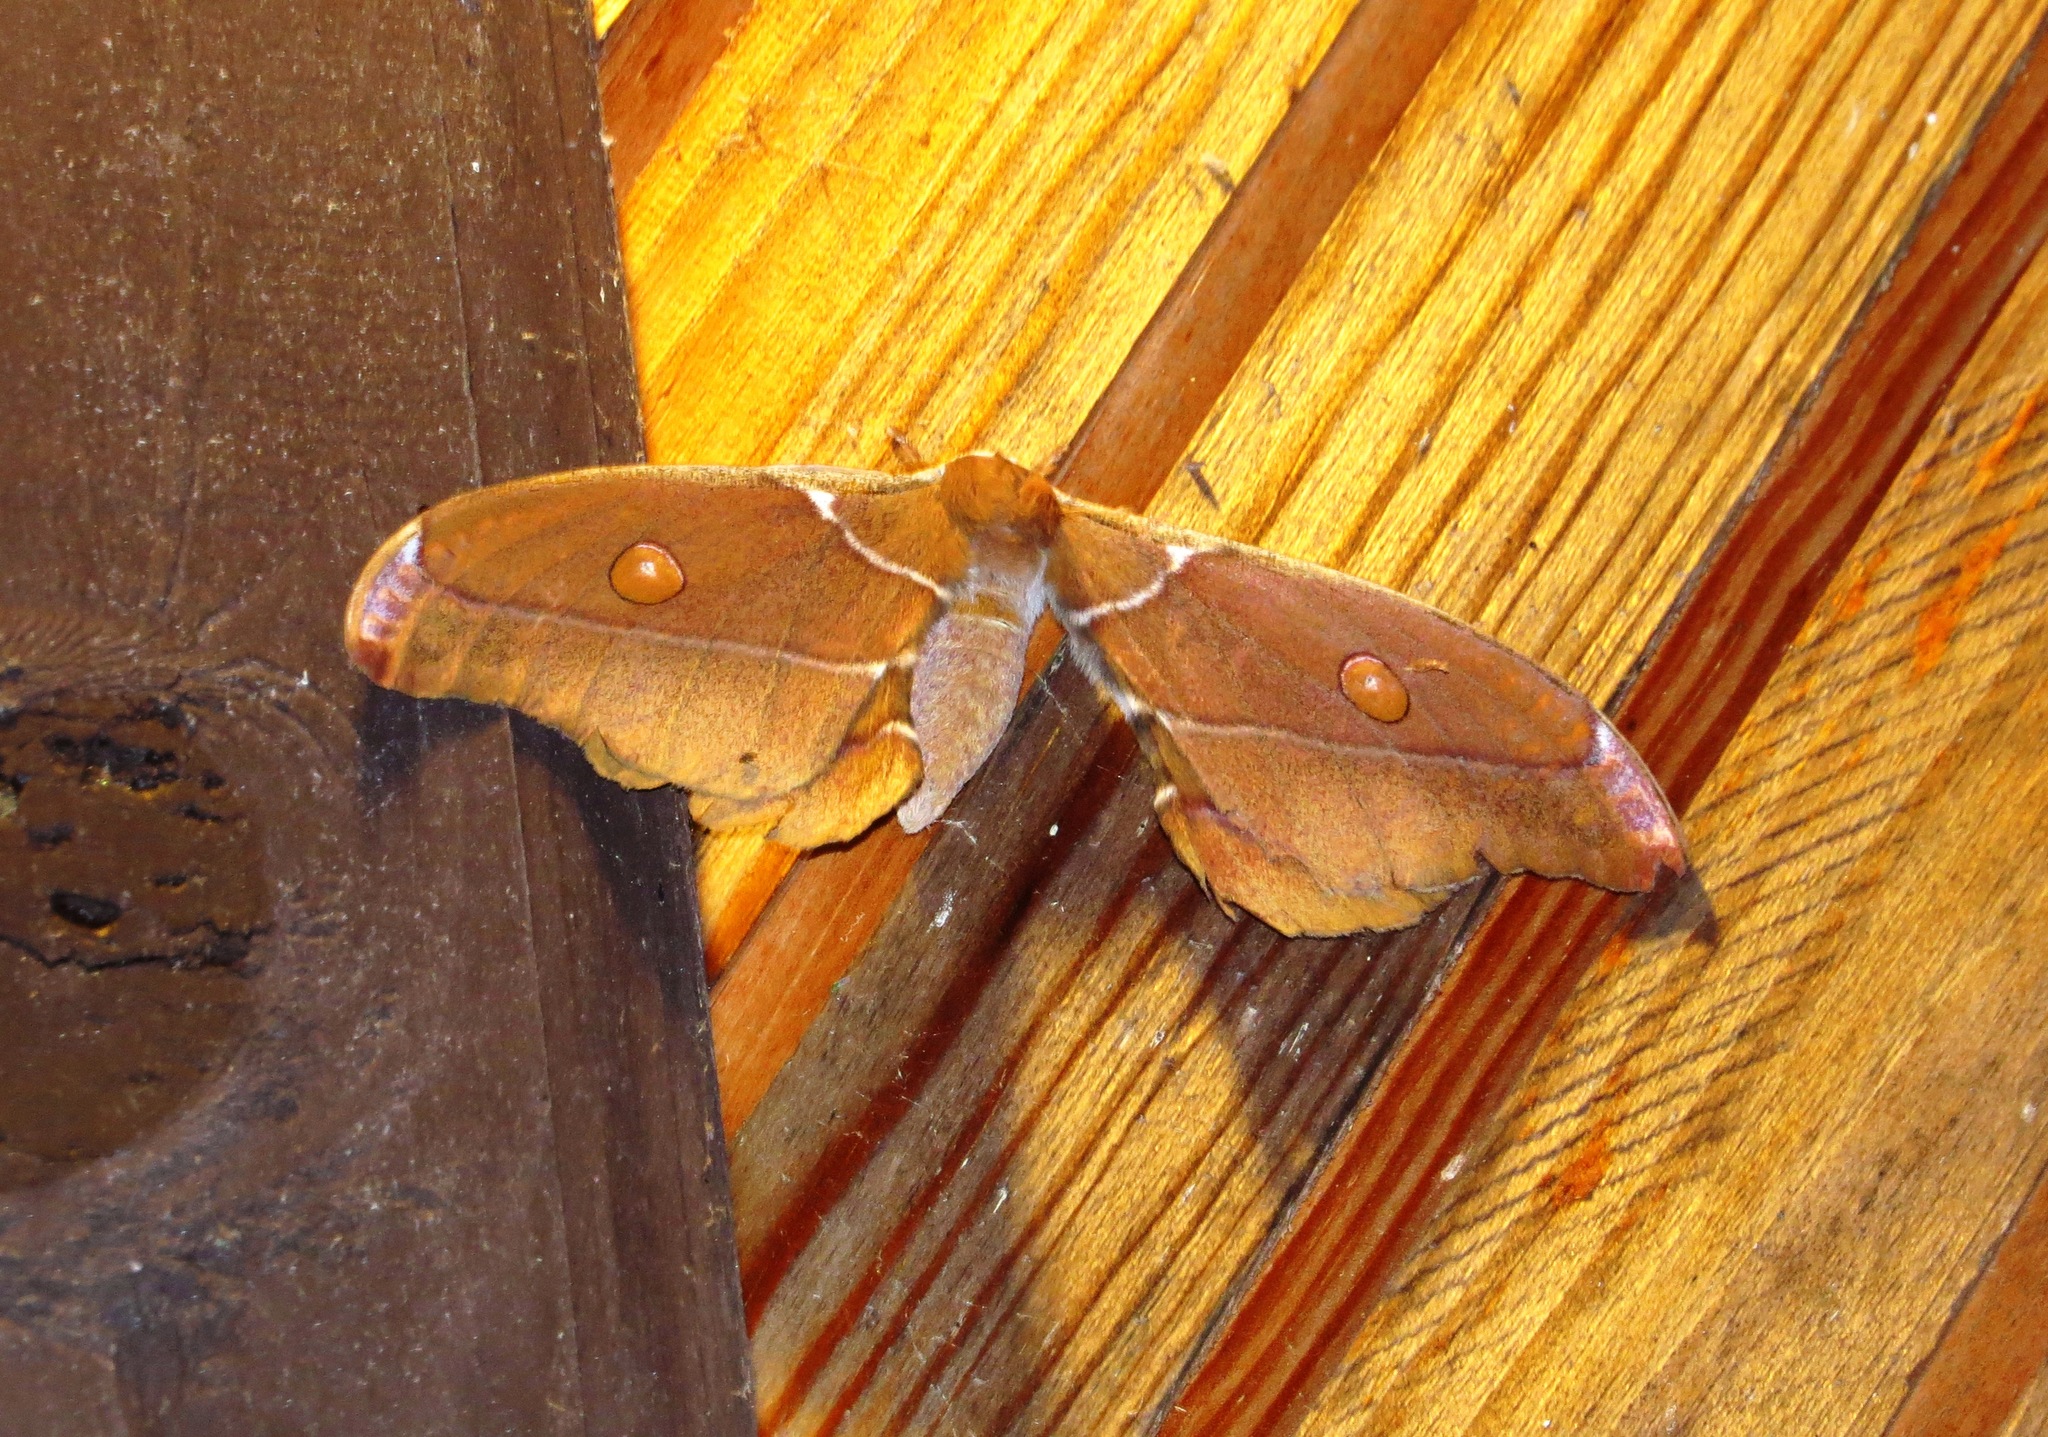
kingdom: Animalia
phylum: Arthropoda
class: Insecta
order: Lepidoptera
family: Saturniidae
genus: Antherina
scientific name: Antherina suraka
